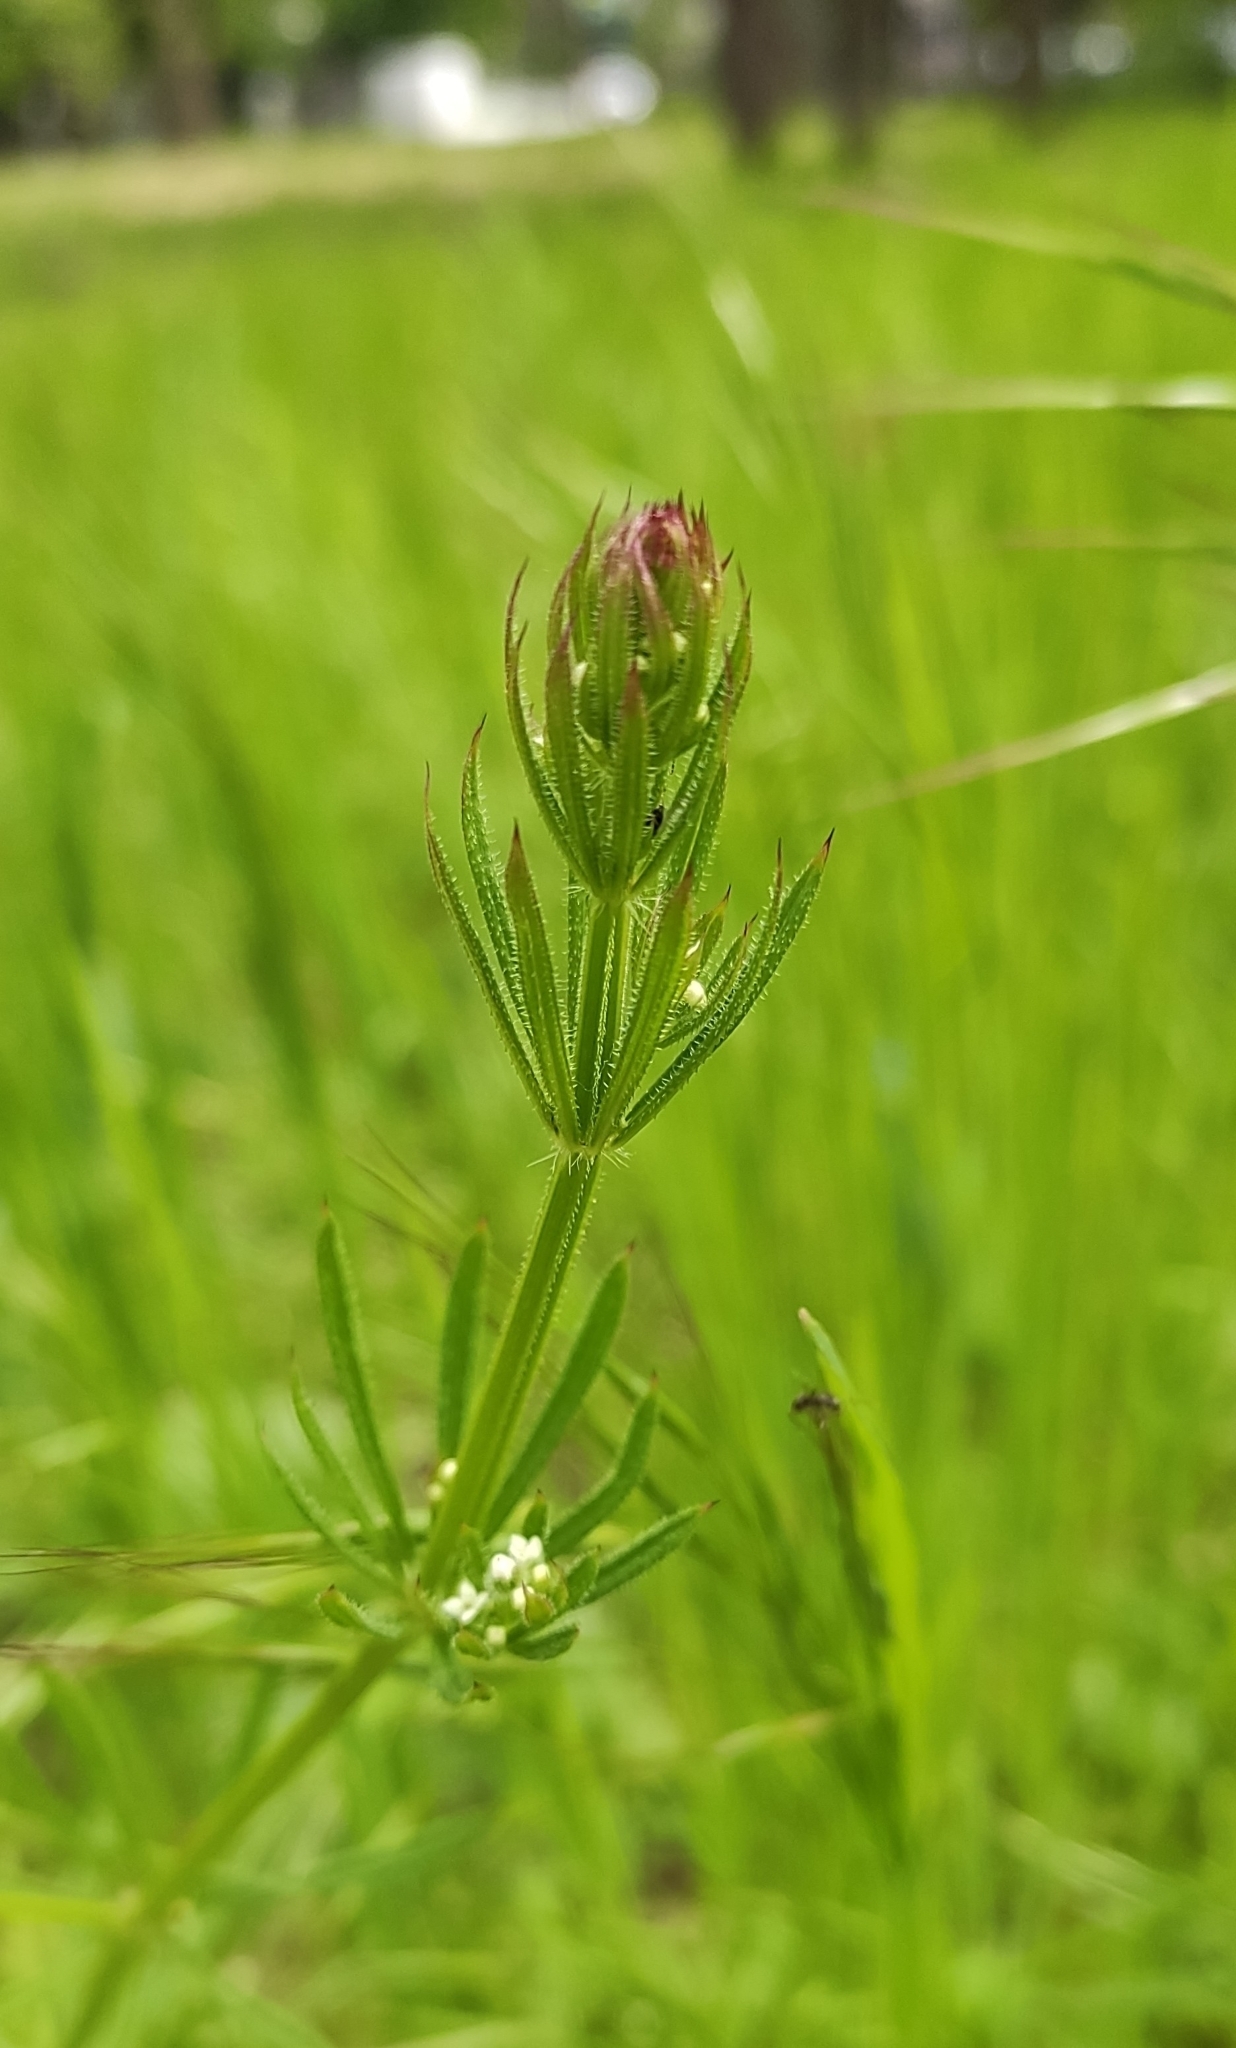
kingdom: Plantae
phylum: Tracheophyta
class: Magnoliopsida
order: Gentianales
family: Rubiaceae
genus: Galium
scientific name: Galium aparine
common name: Cleavers
